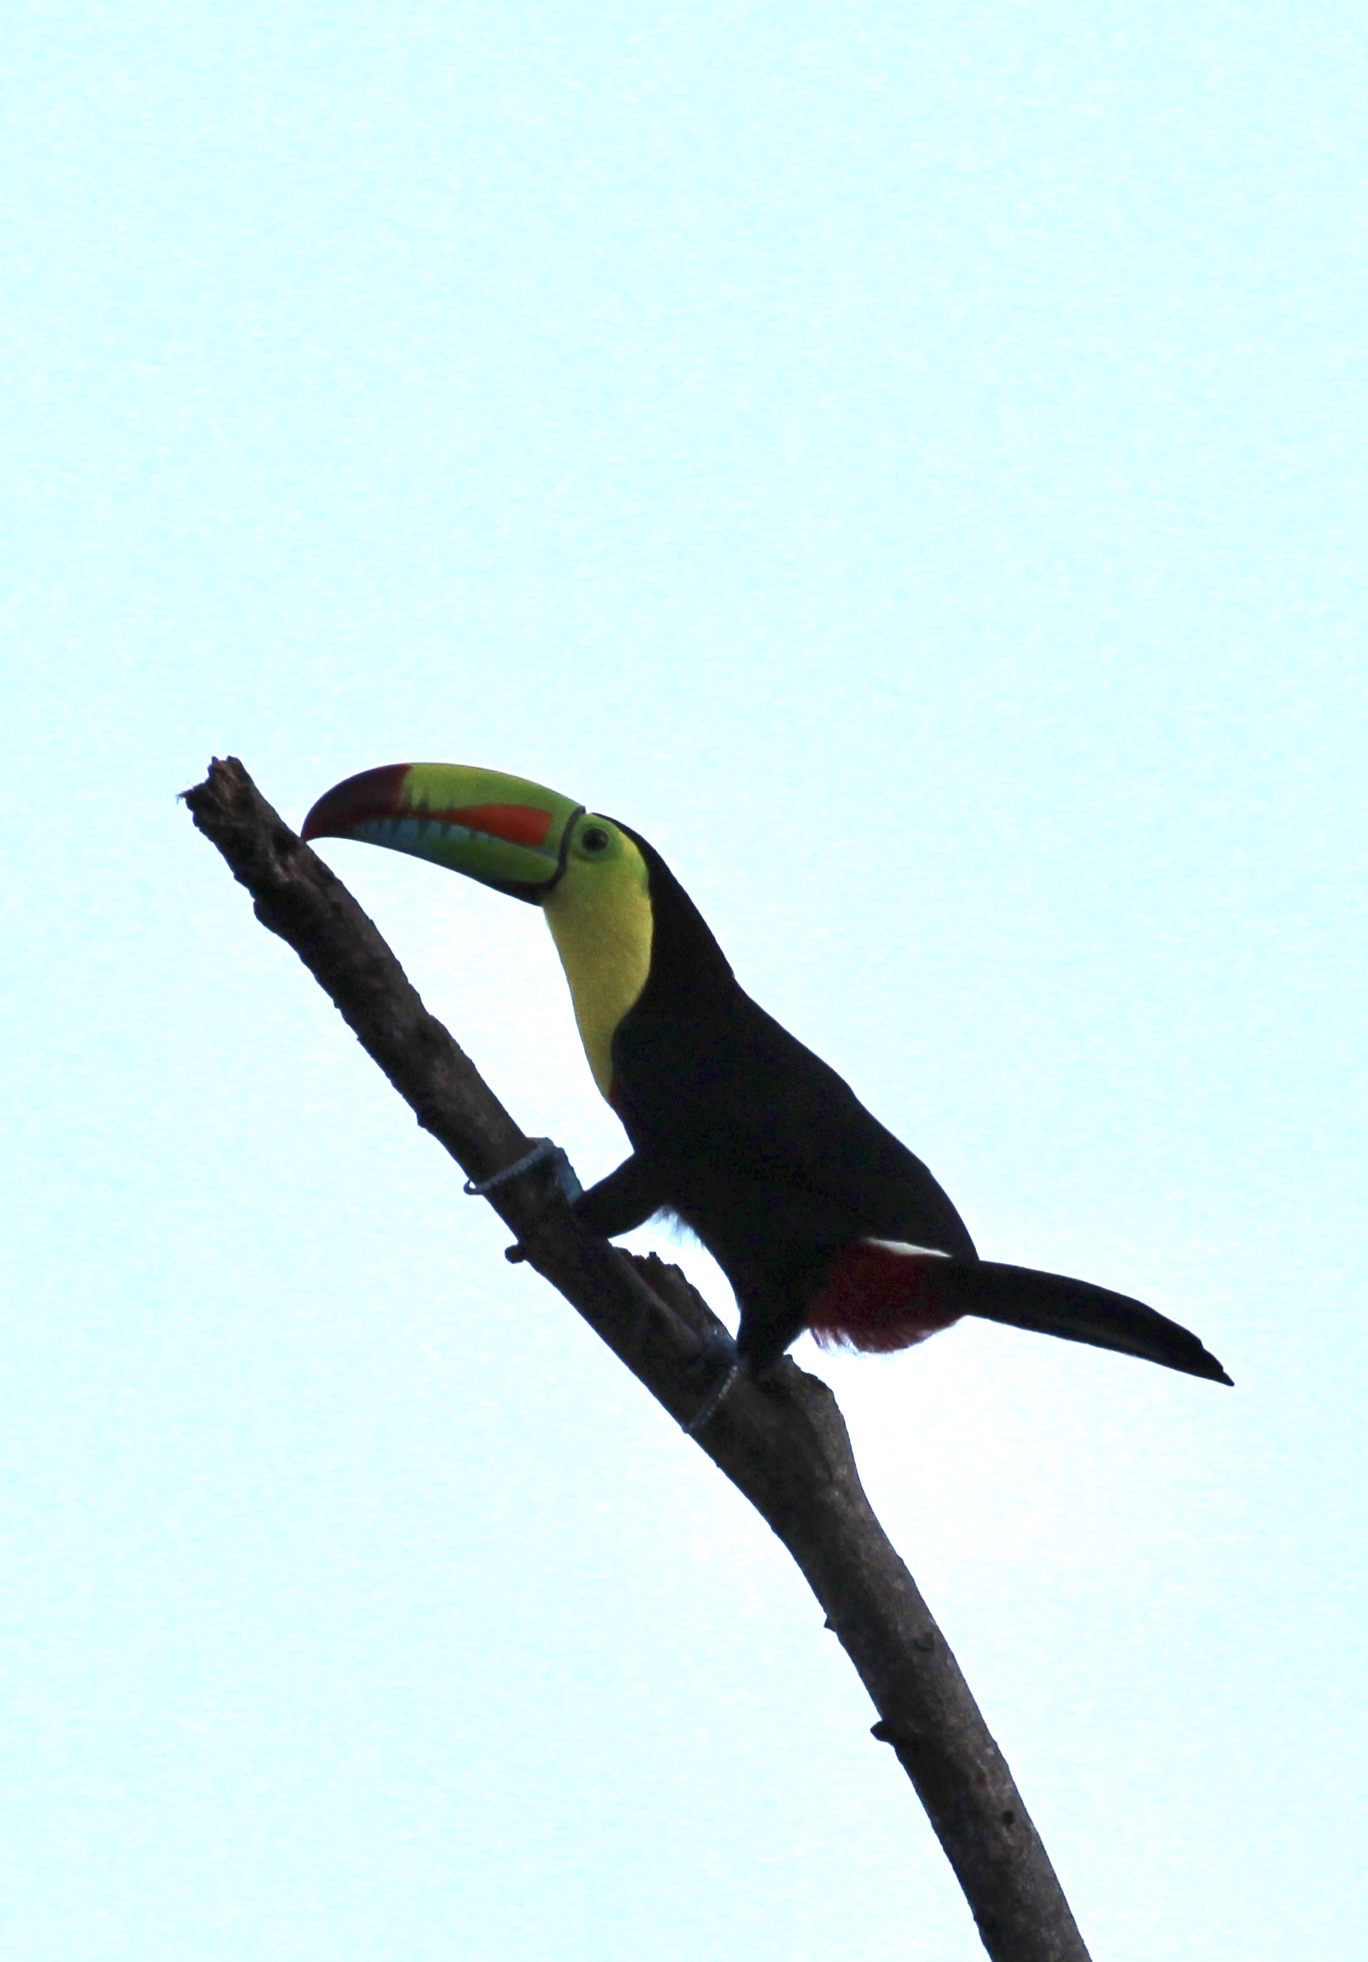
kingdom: Animalia
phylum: Chordata
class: Aves
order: Piciformes
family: Ramphastidae
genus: Ramphastos
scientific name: Ramphastos sulfuratus
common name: Keel-billed toucan
